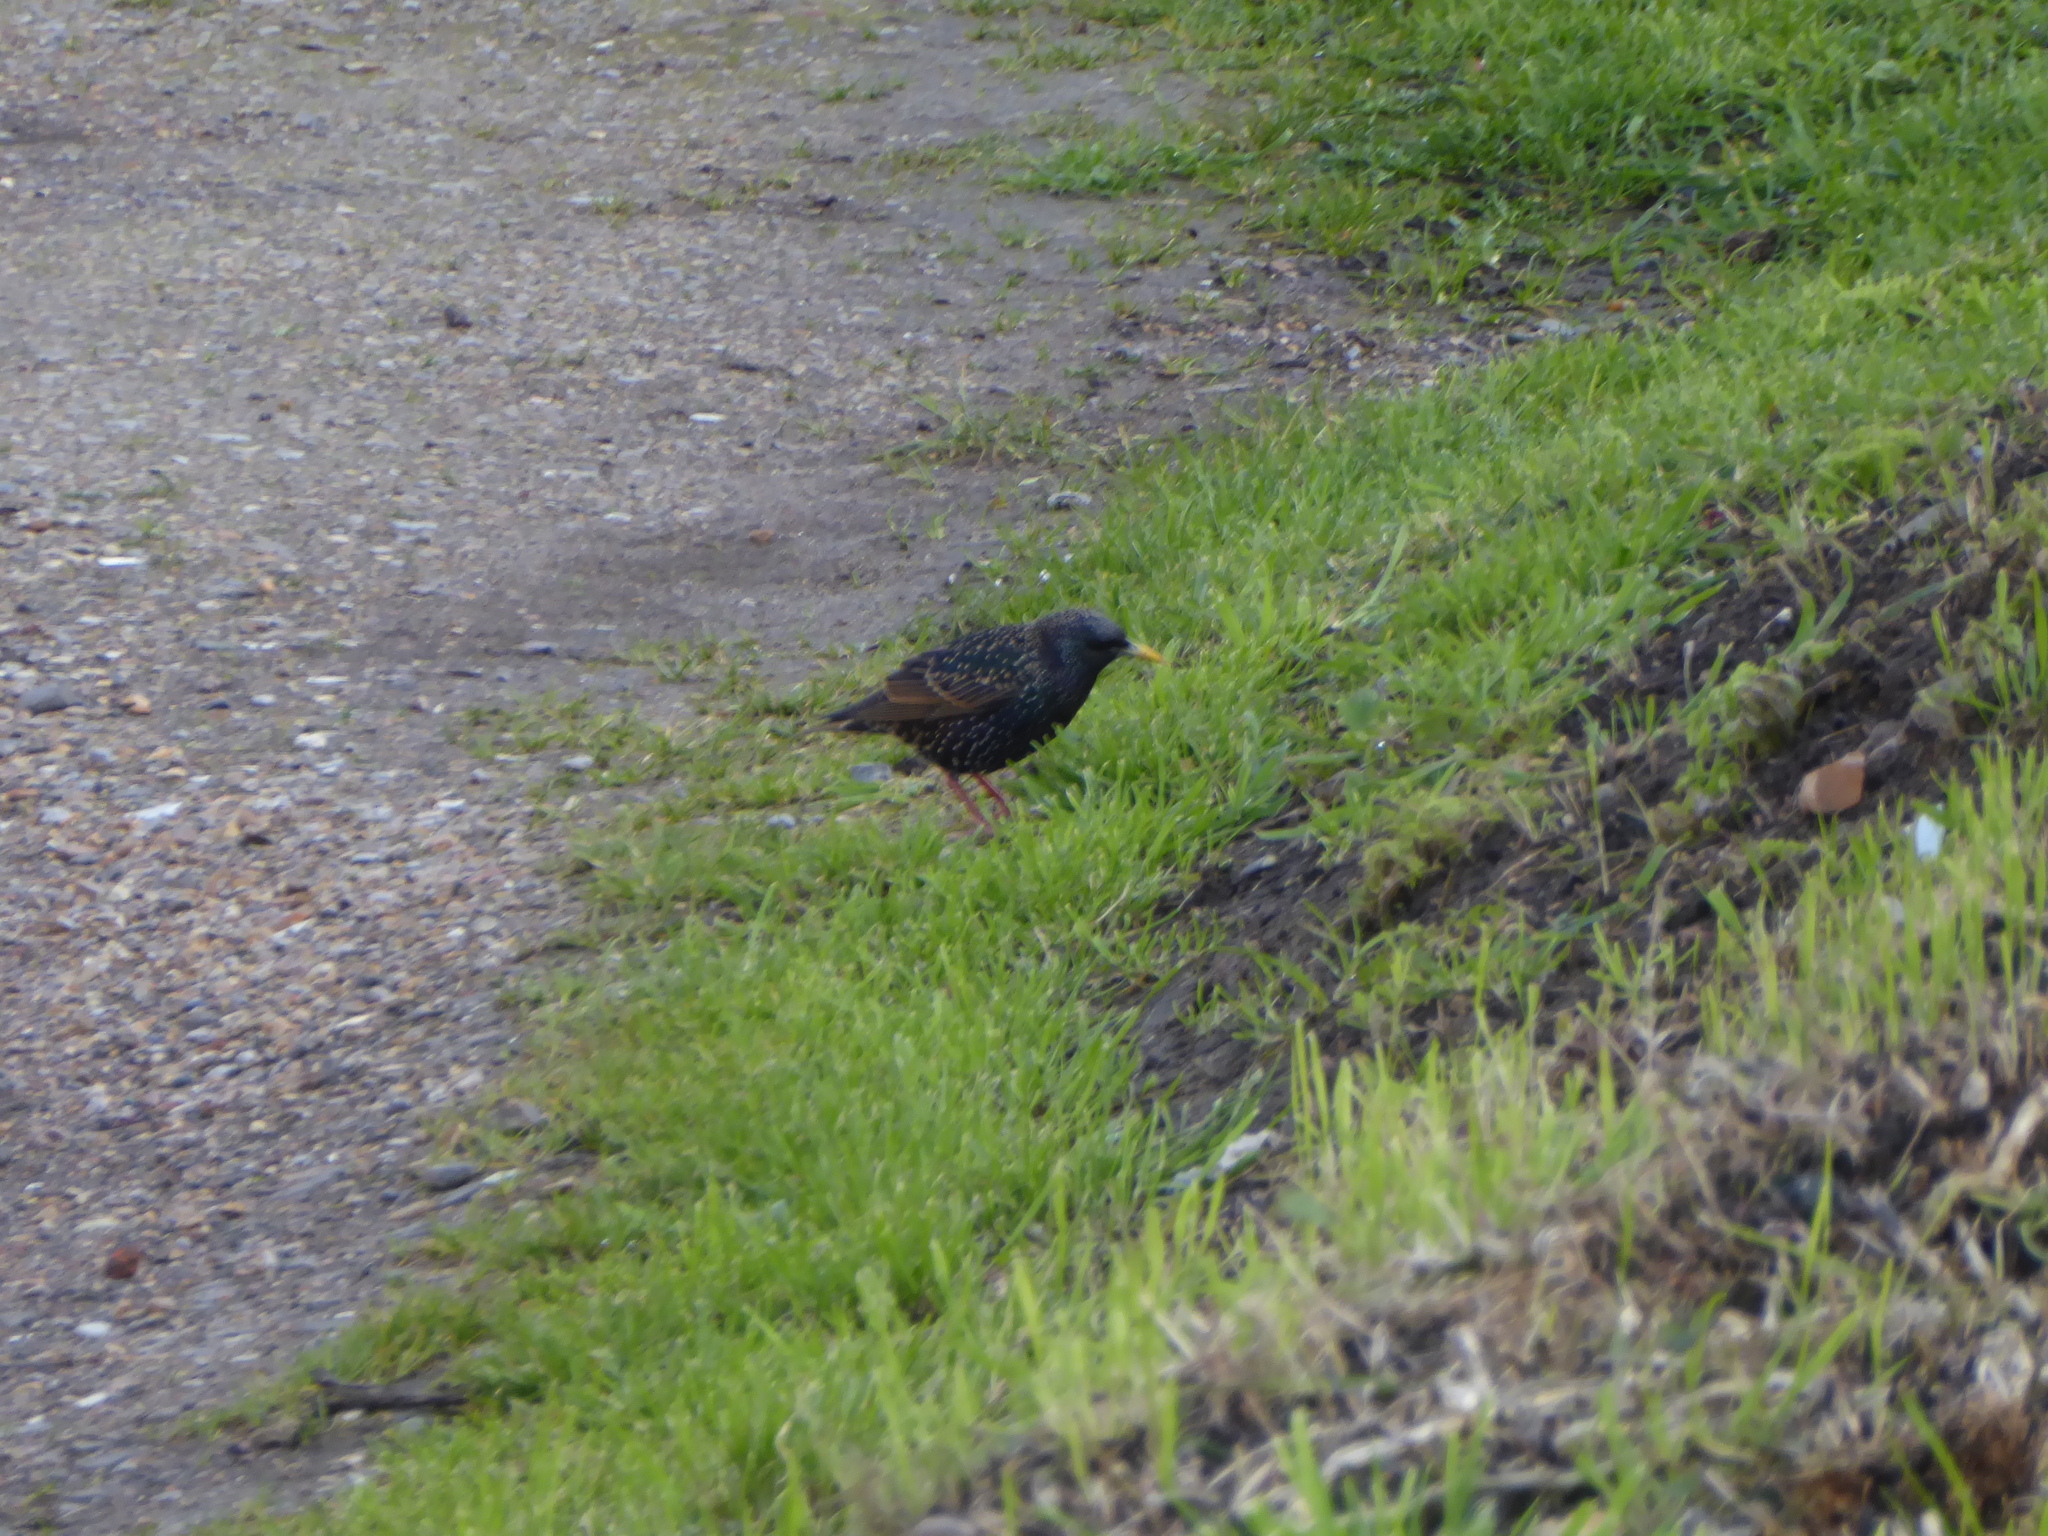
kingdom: Animalia
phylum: Chordata
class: Aves
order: Passeriformes
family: Sturnidae
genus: Sturnus
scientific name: Sturnus vulgaris
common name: Common starling
